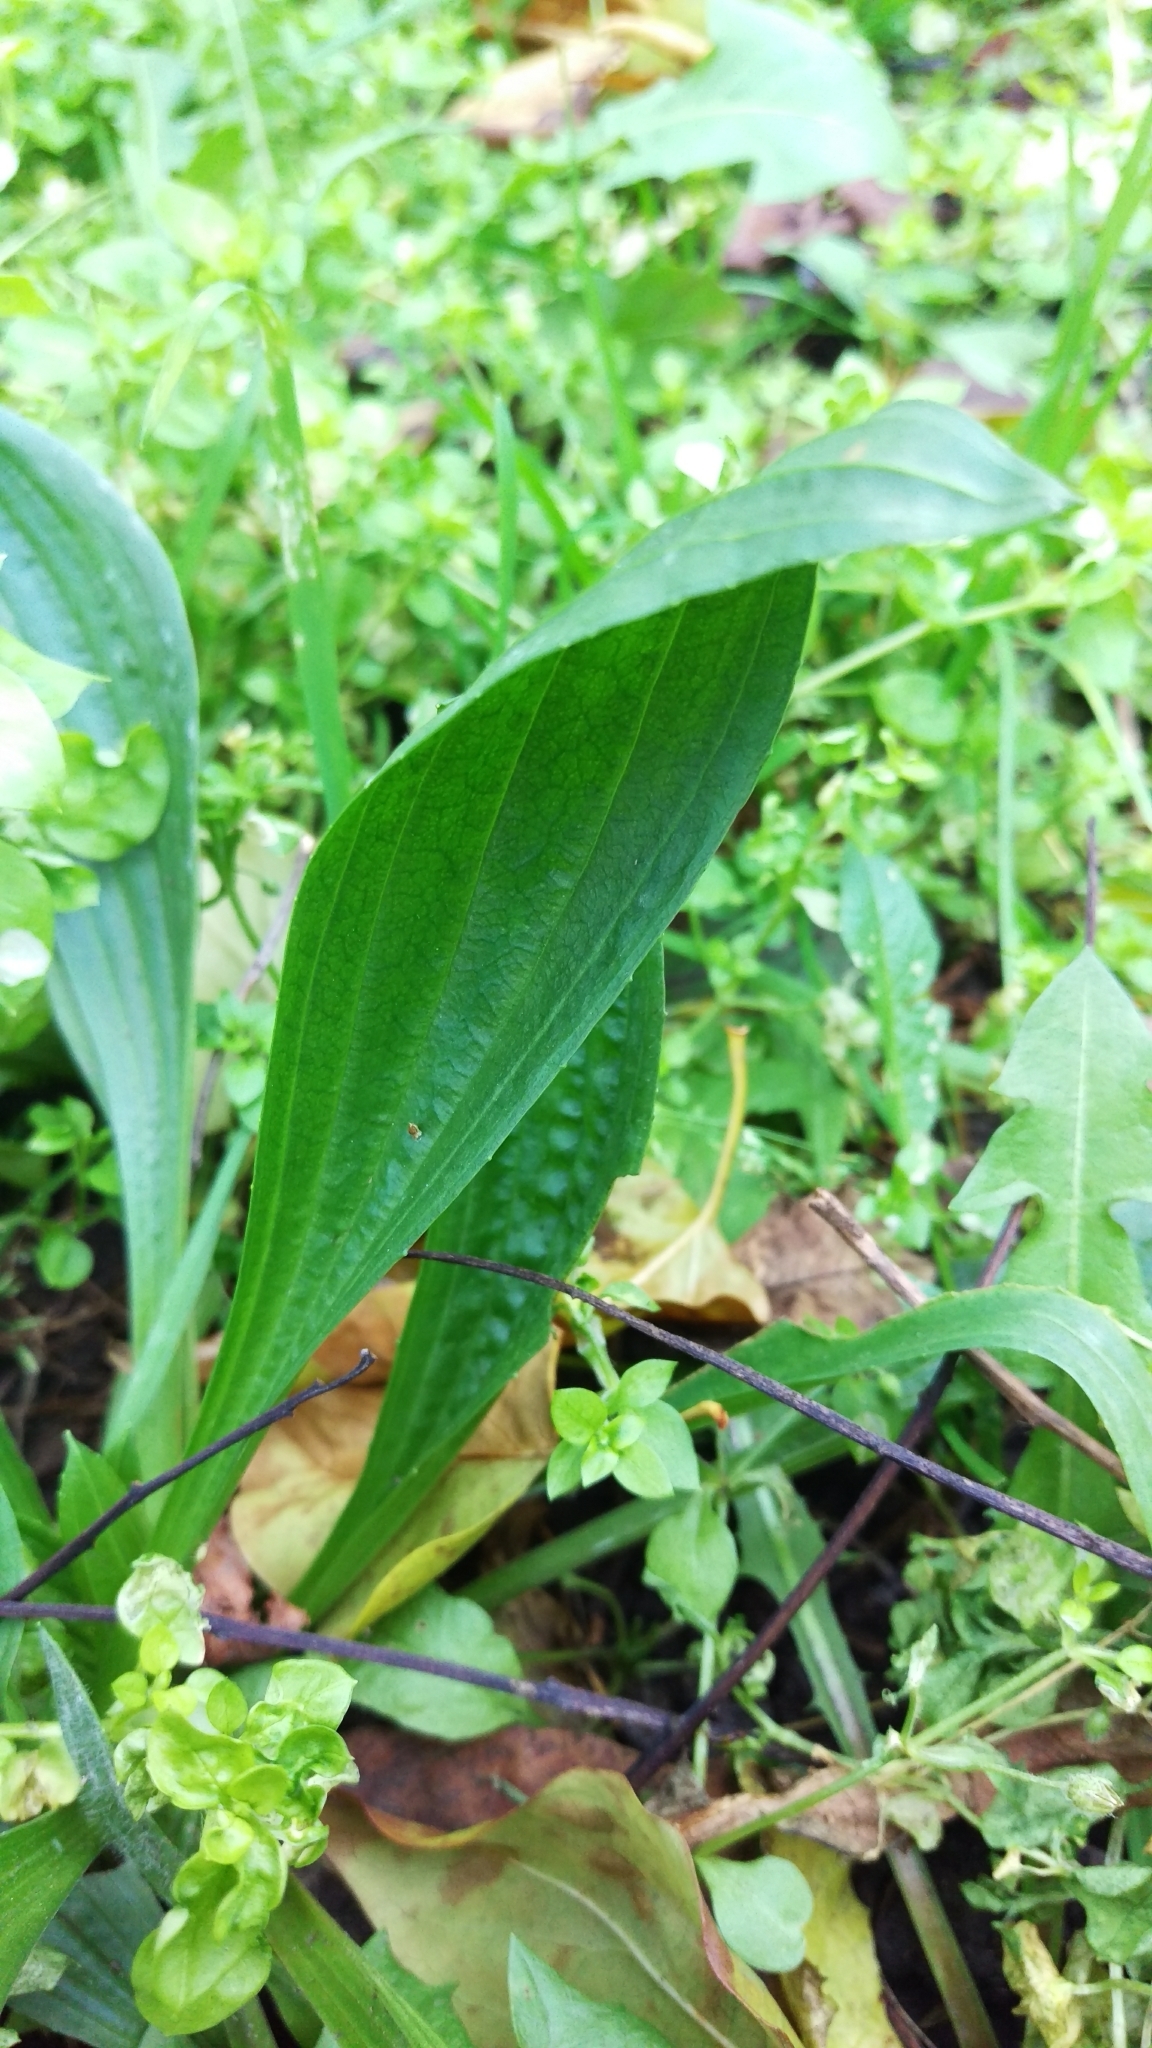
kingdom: Plantae
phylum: Tracheophyta
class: Magnoliopsida
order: Lamiales
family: Plantaginaceae
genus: Plantago
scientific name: Plantago lanceolata
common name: Ribwort plantain
